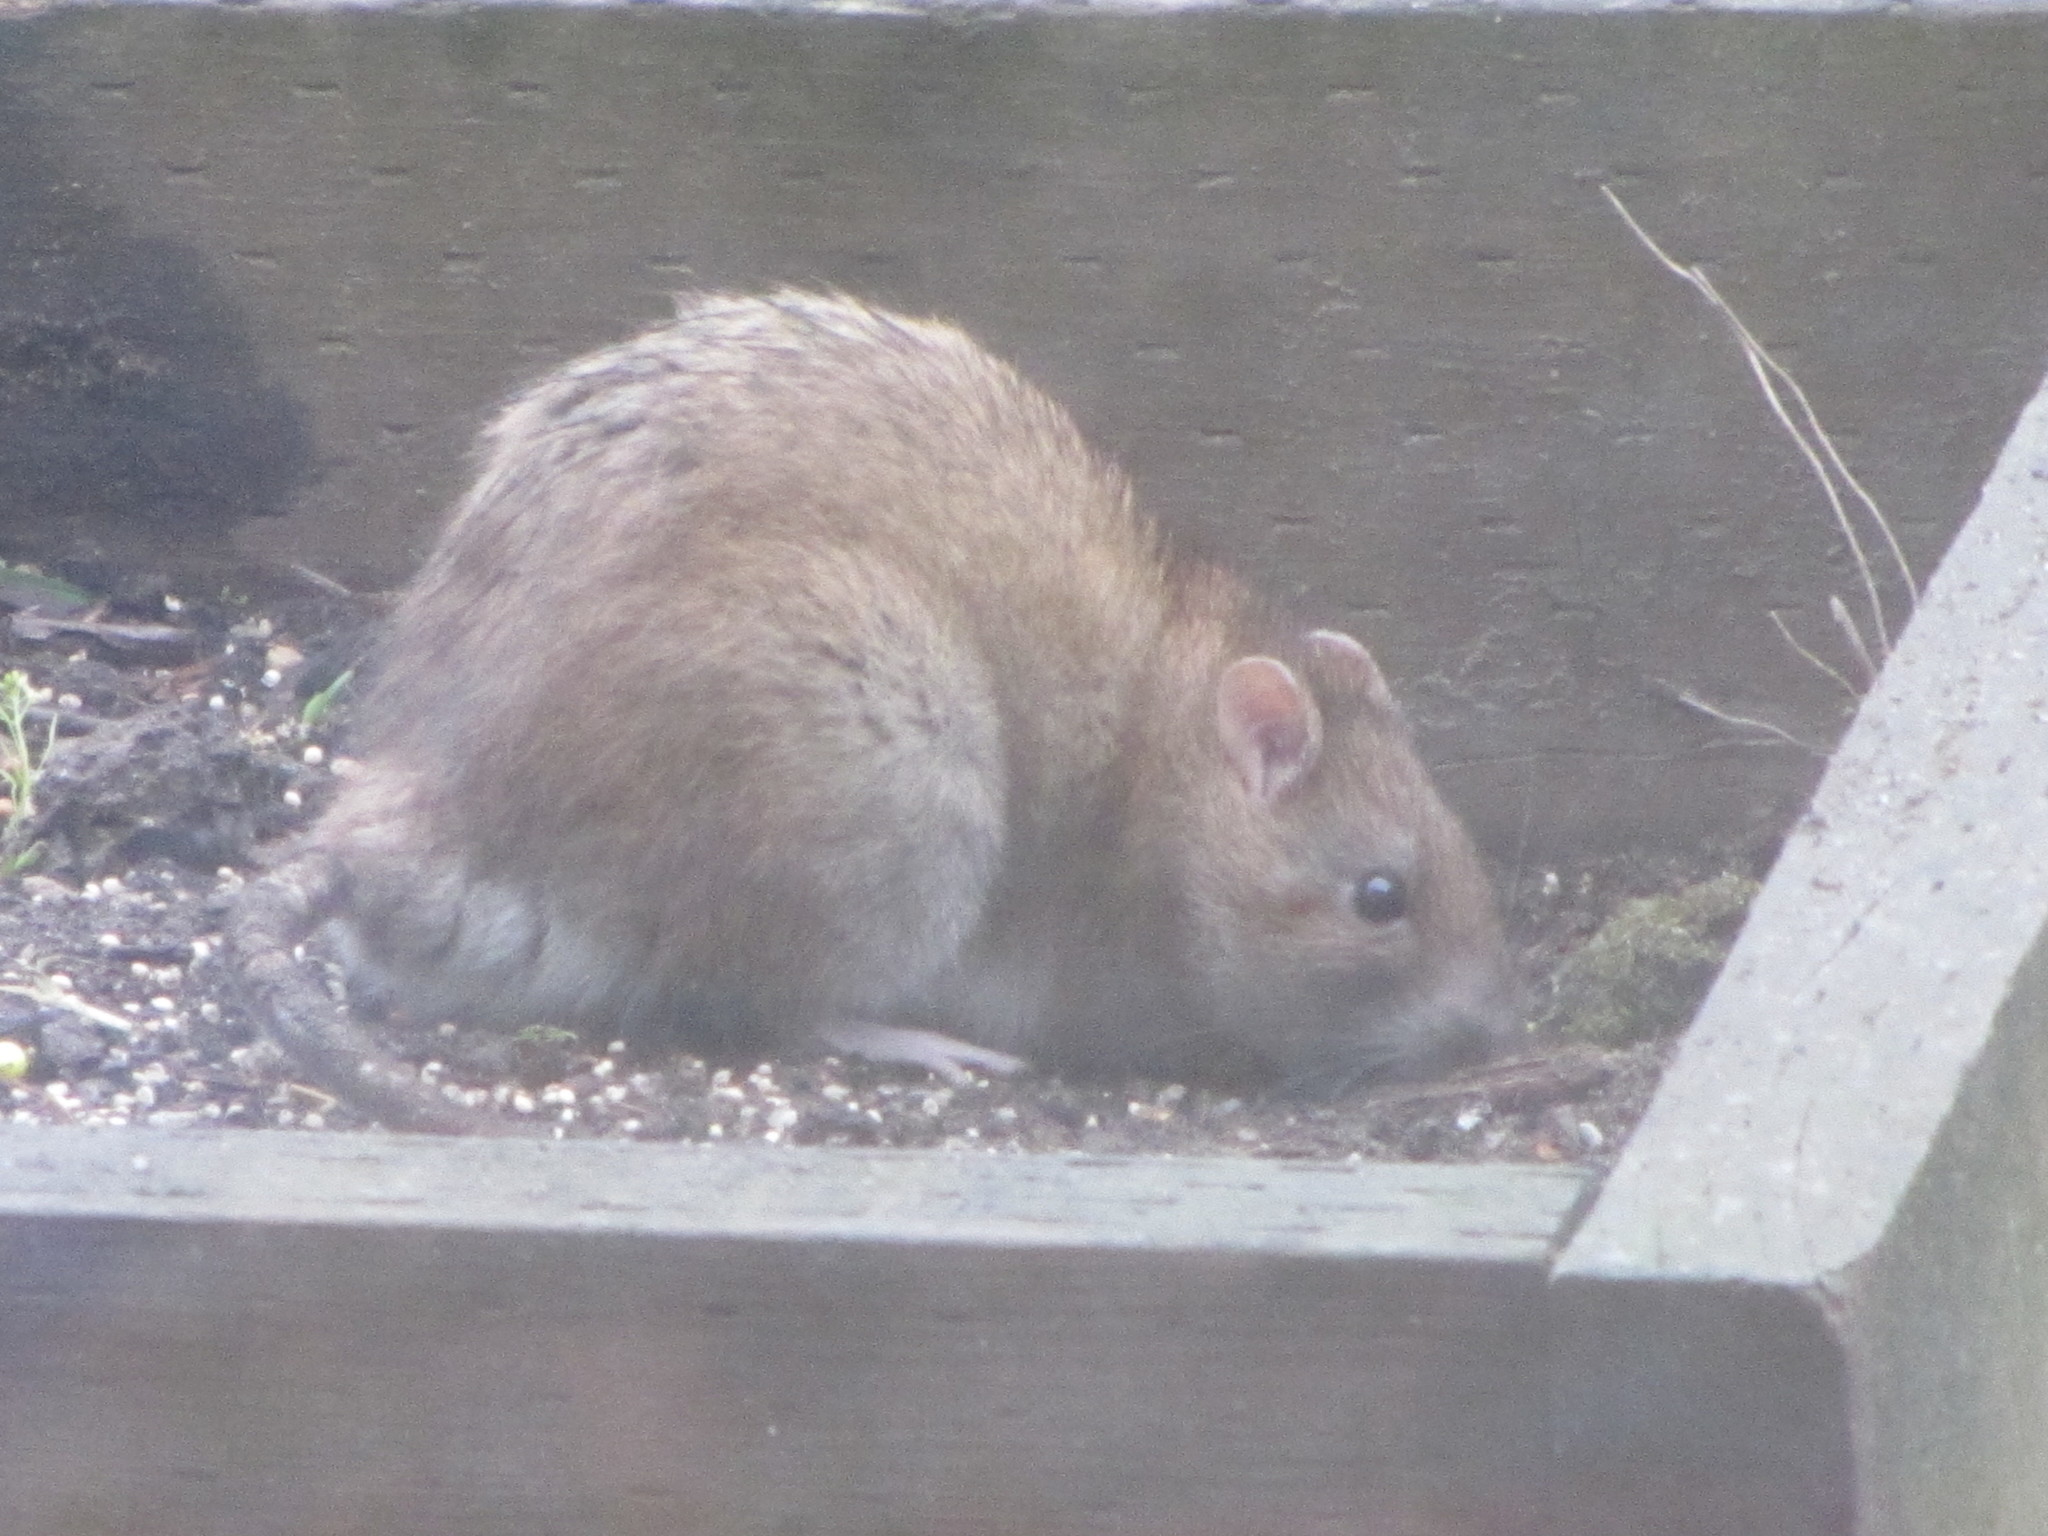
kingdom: Animalia
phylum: Chordata
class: Mammalia
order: Rodentia
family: Muridae
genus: Rattus
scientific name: Rattus norvegicus
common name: Brown rat
